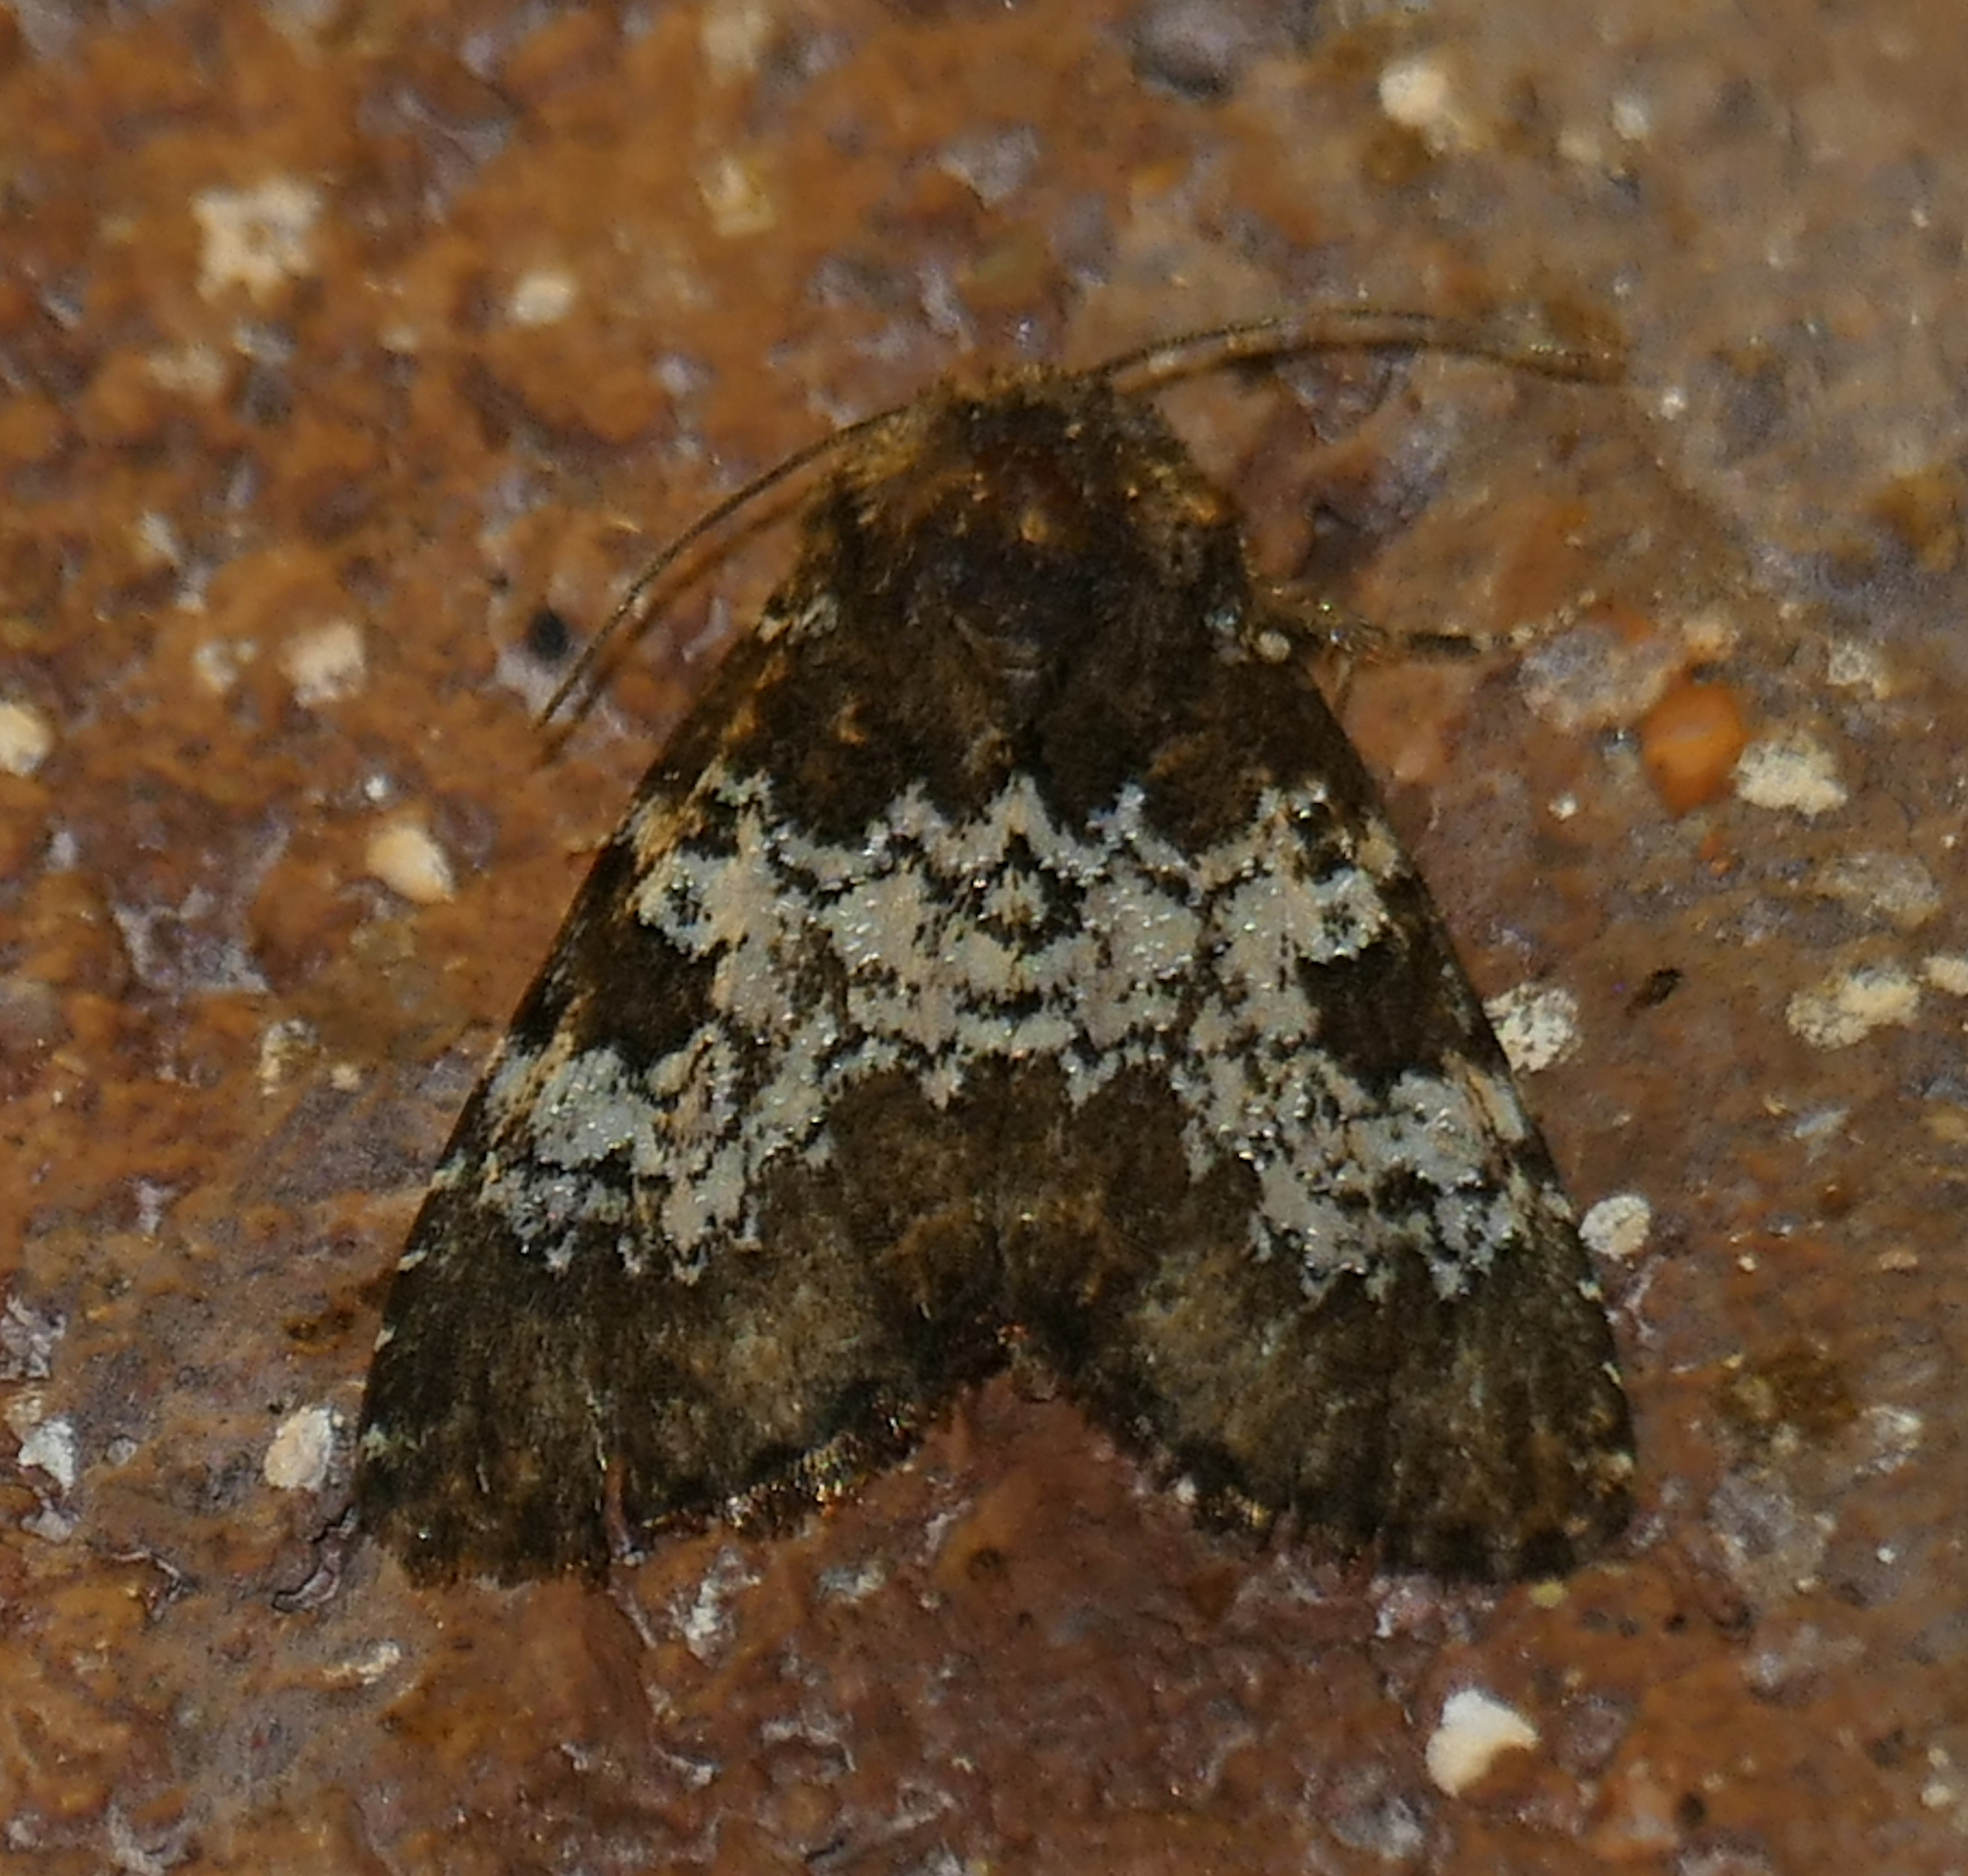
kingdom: Animalia
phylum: Arthropoda
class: Insecta
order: Lepidoptera
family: Noctuidae
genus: Euamiana
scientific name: Euamiana contrasta
